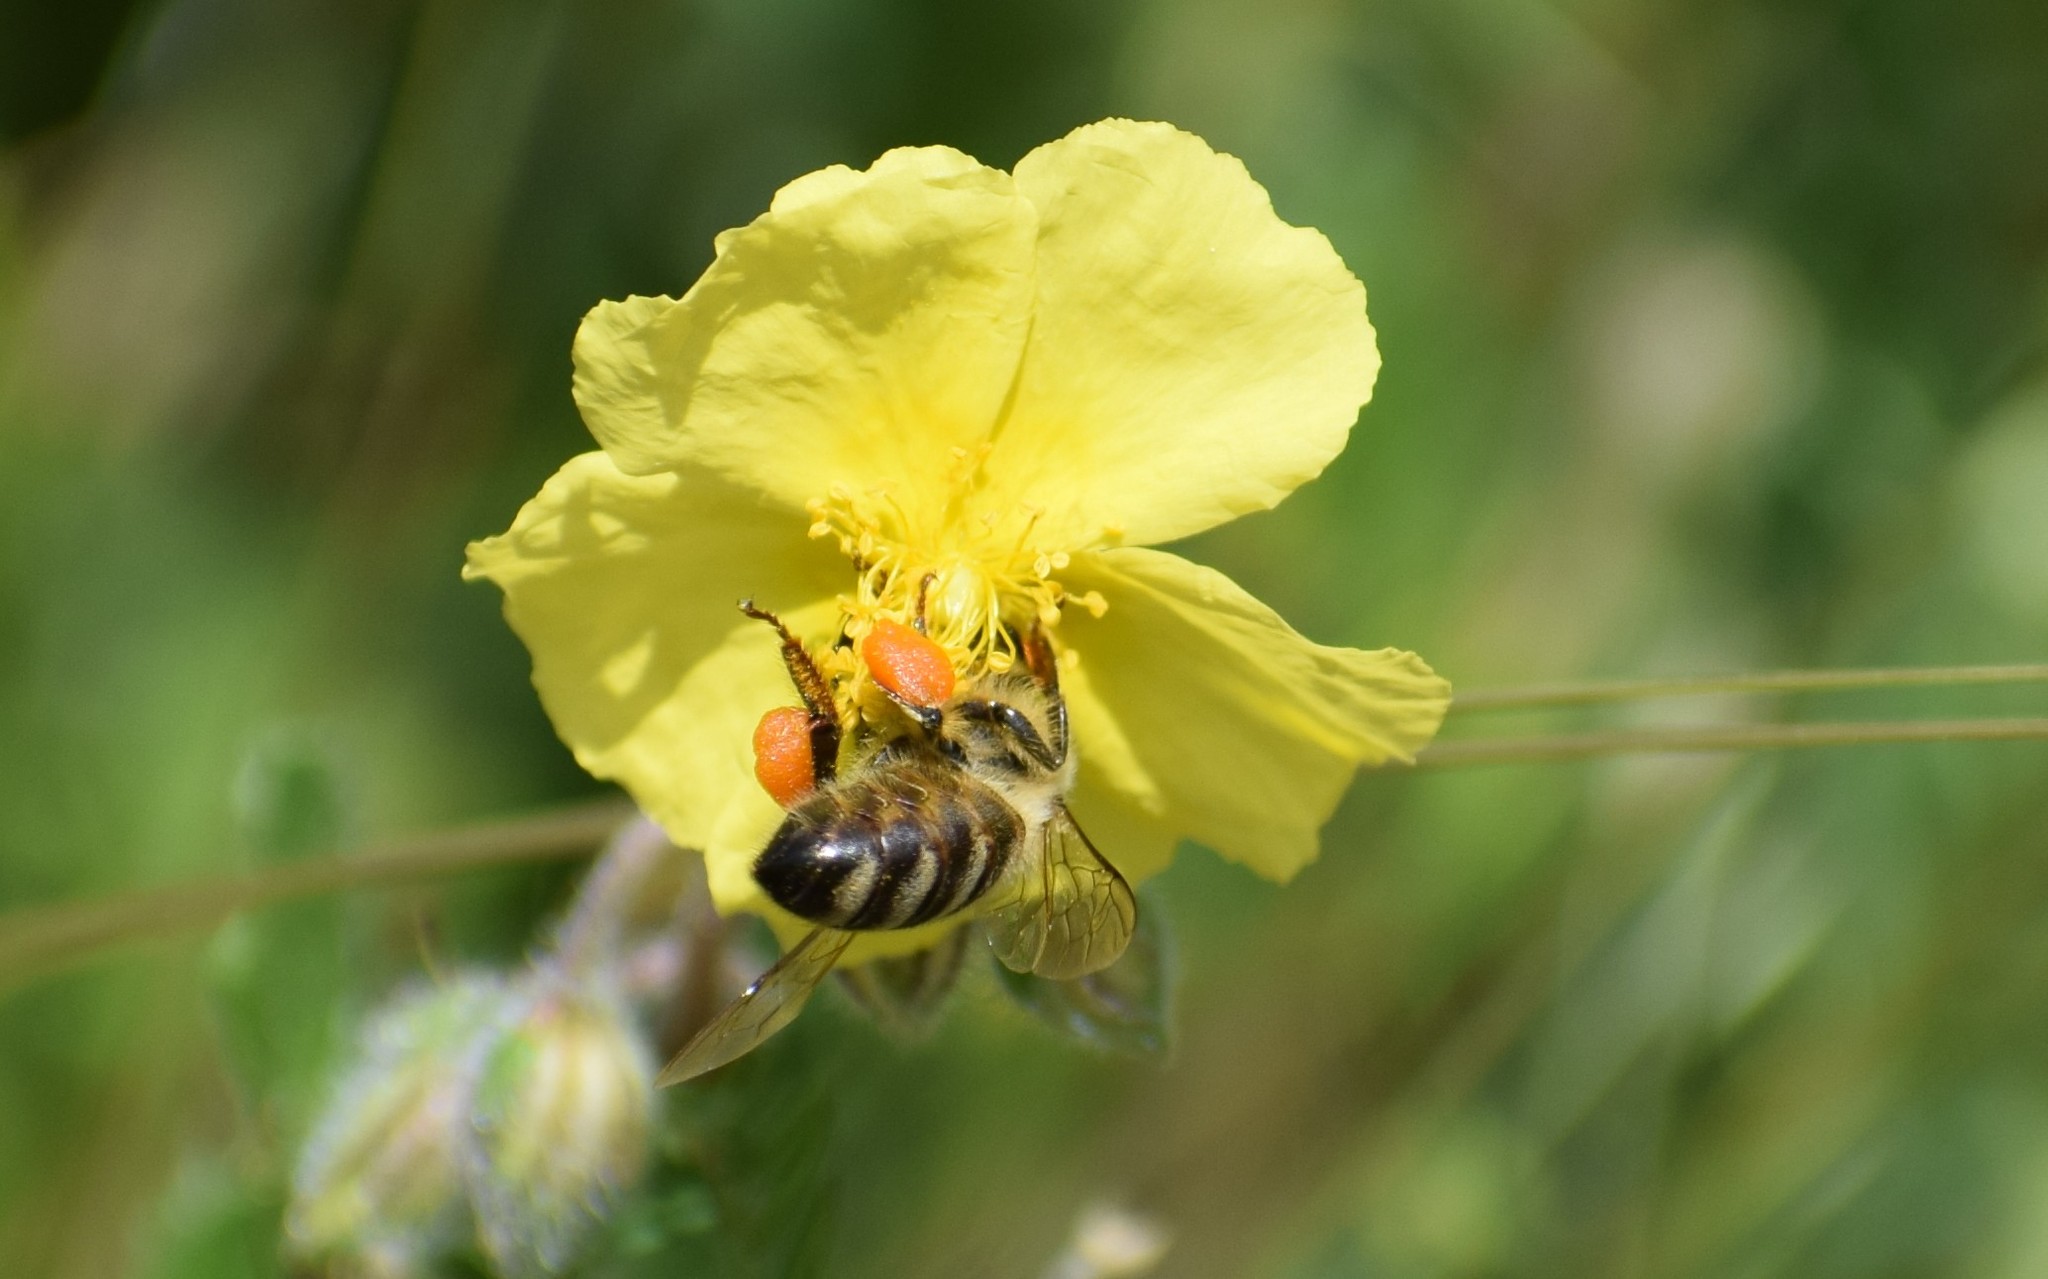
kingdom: Animalia
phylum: Arthropoda
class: Insecta
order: Hymenoptera
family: Apidae
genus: Apis
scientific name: Apis mellifera
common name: Honey bee
